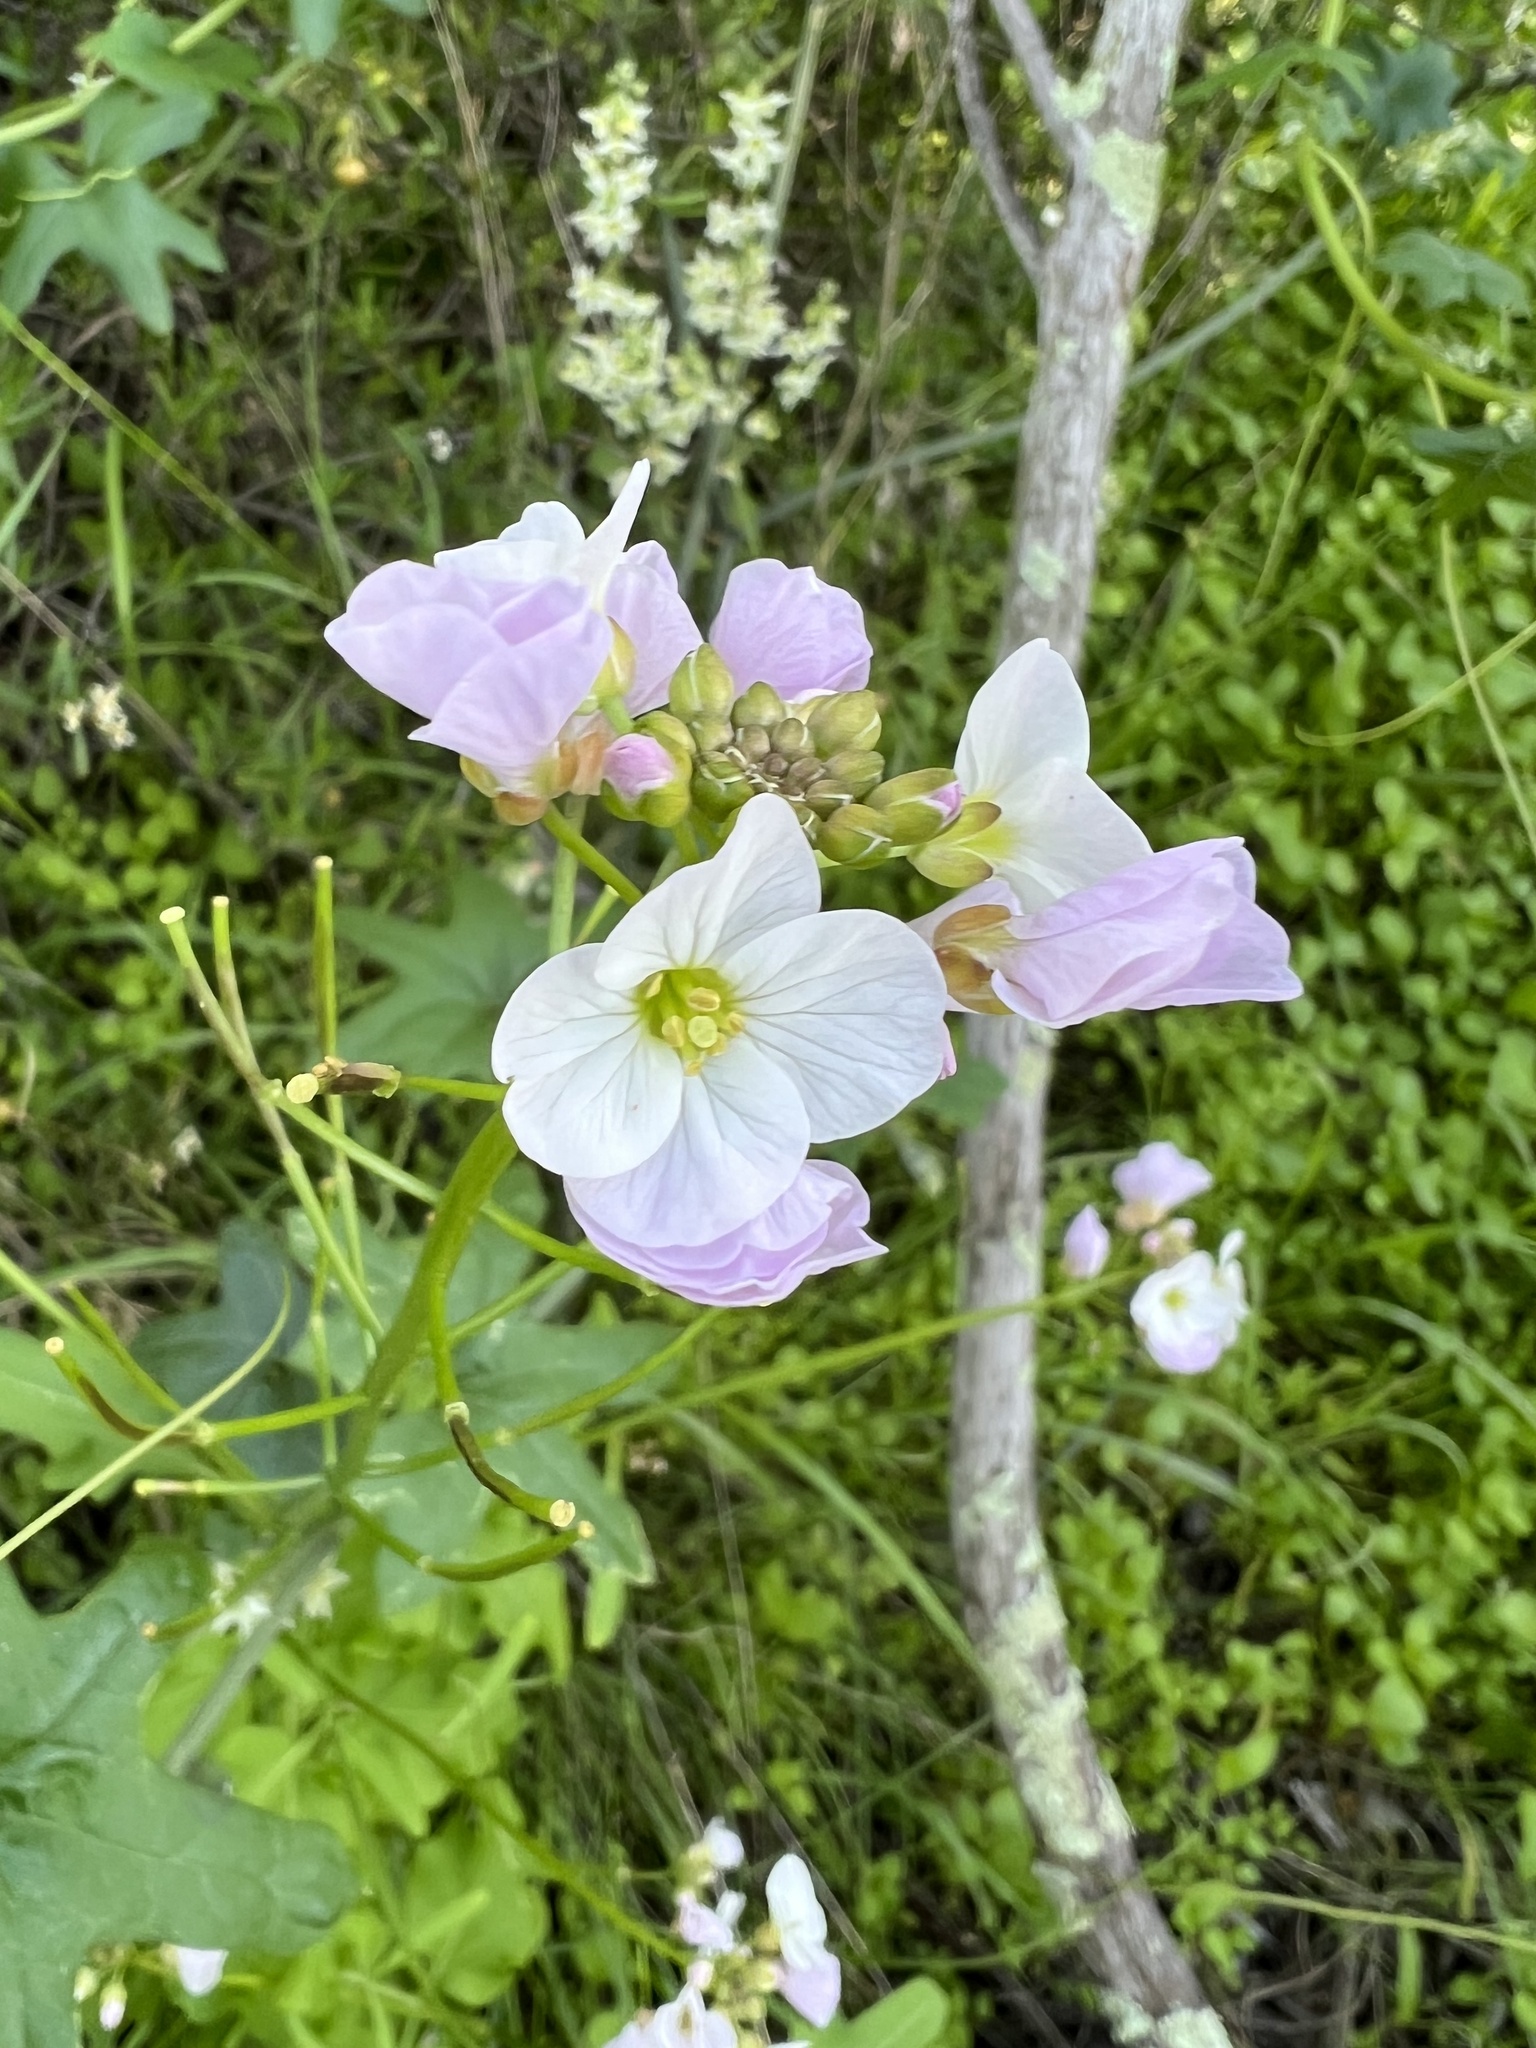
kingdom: Plantae
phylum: Tracheophyta
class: Magnoliopsida
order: Brassicales
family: Brassicaceae
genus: Cardamine
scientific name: Cardamine californica
